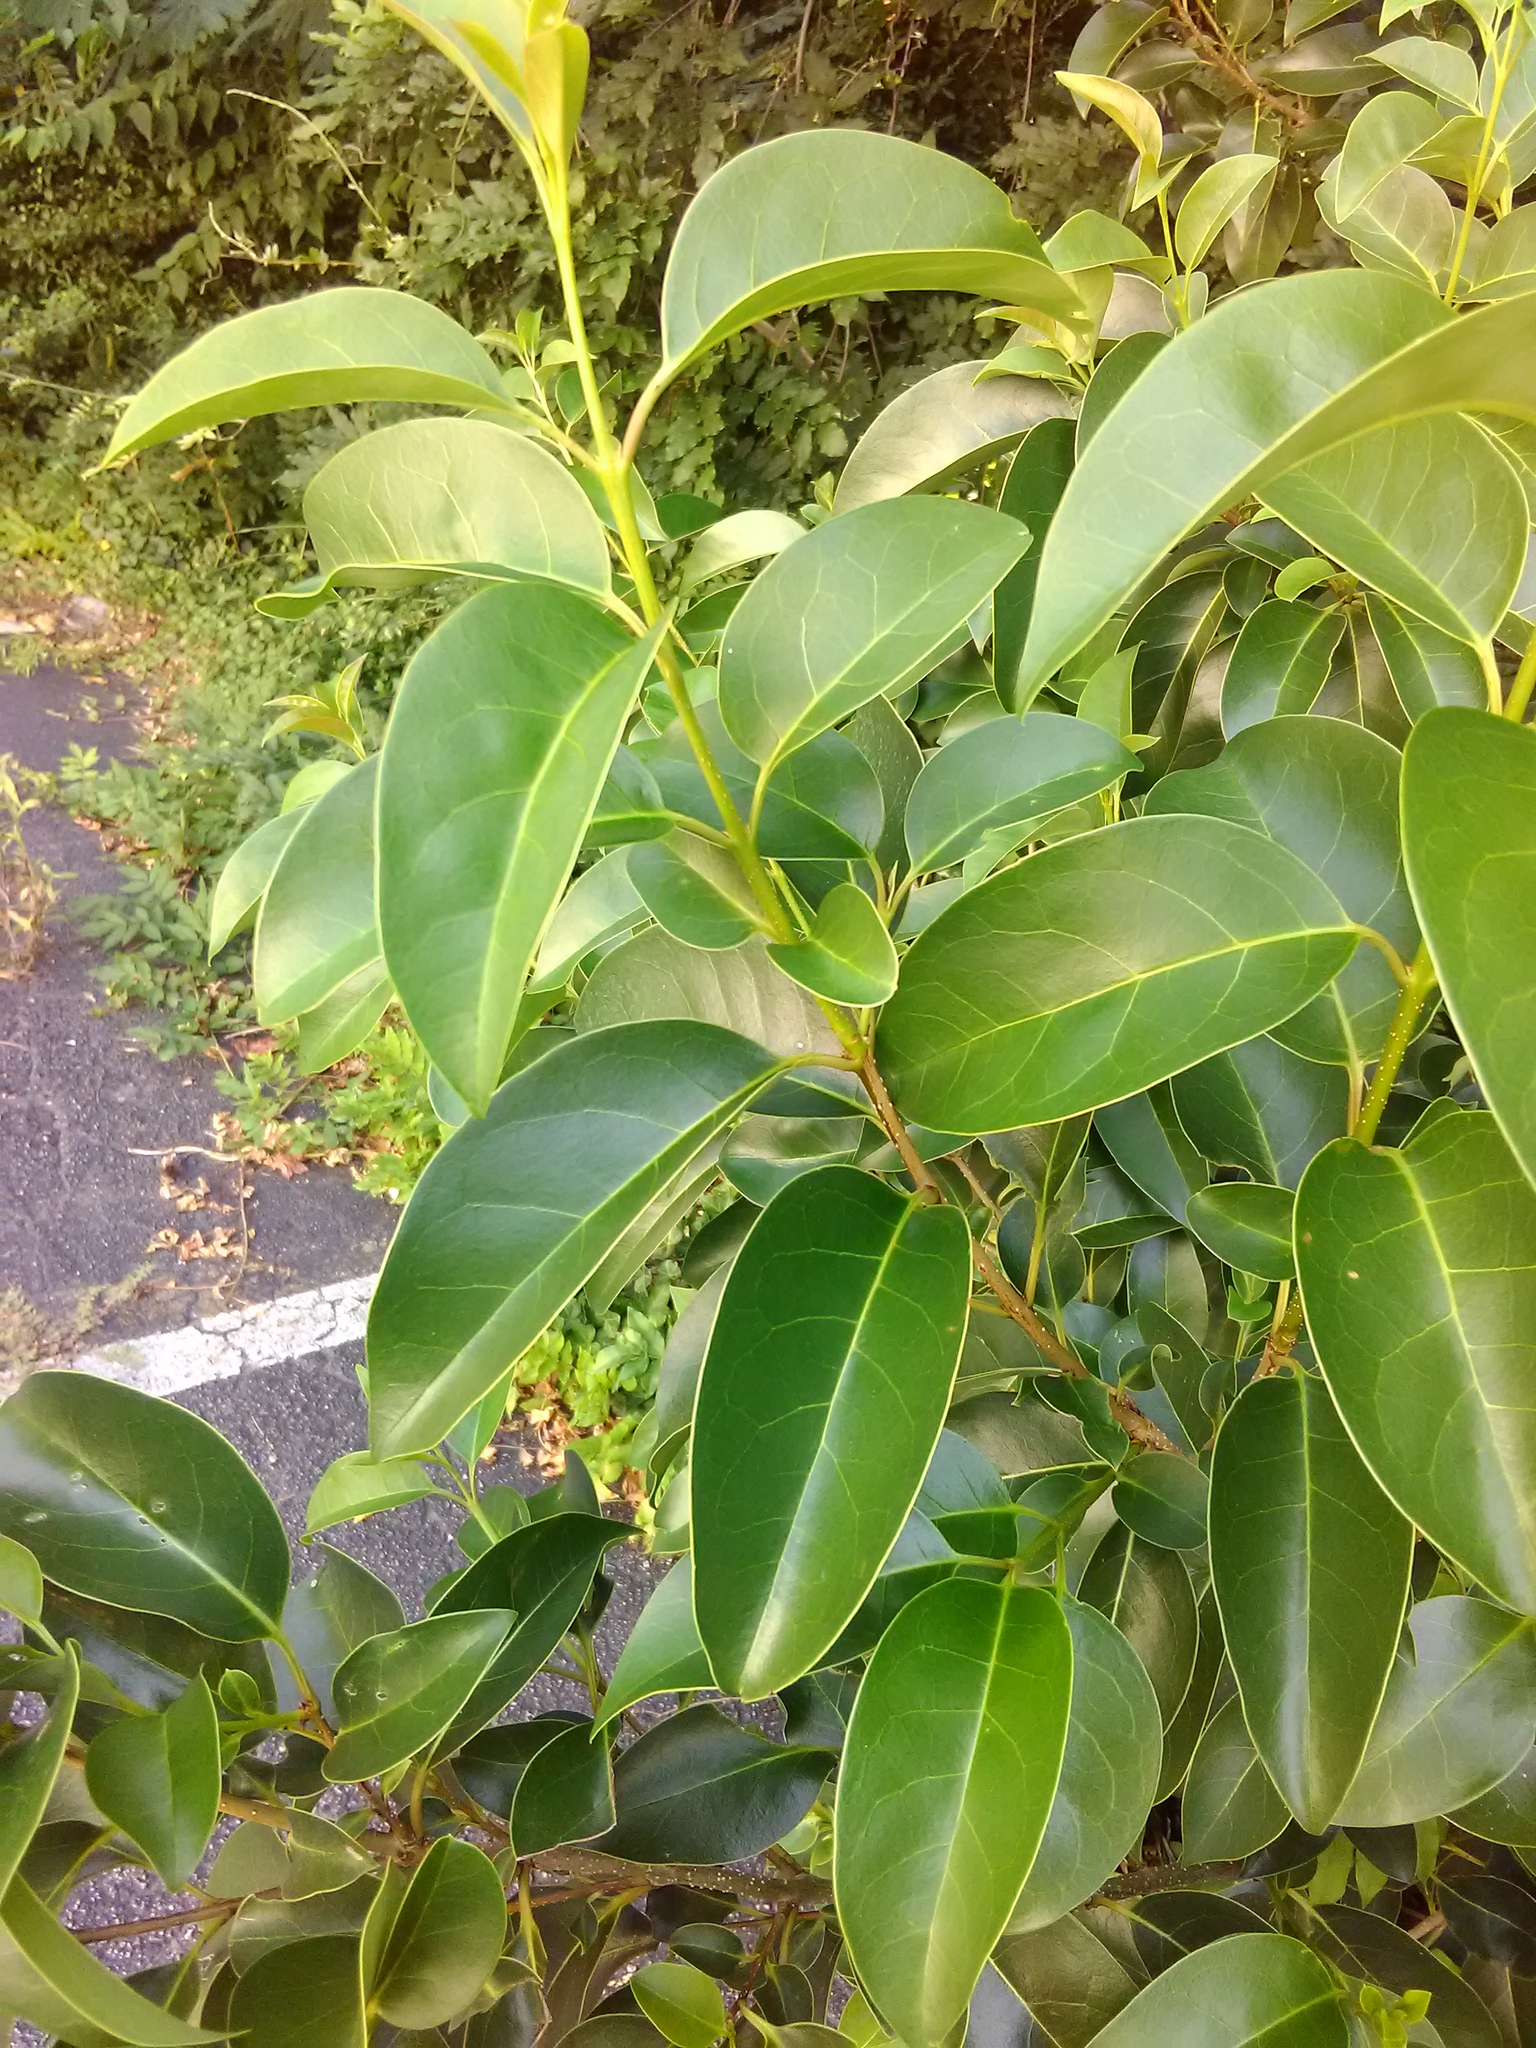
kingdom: Plantae
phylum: Tracheophyta
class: Magnoliopsida
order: Lamiales
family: Oleaceae
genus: Ligustrum
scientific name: Ligustrum lucidum
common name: Glossy privet
